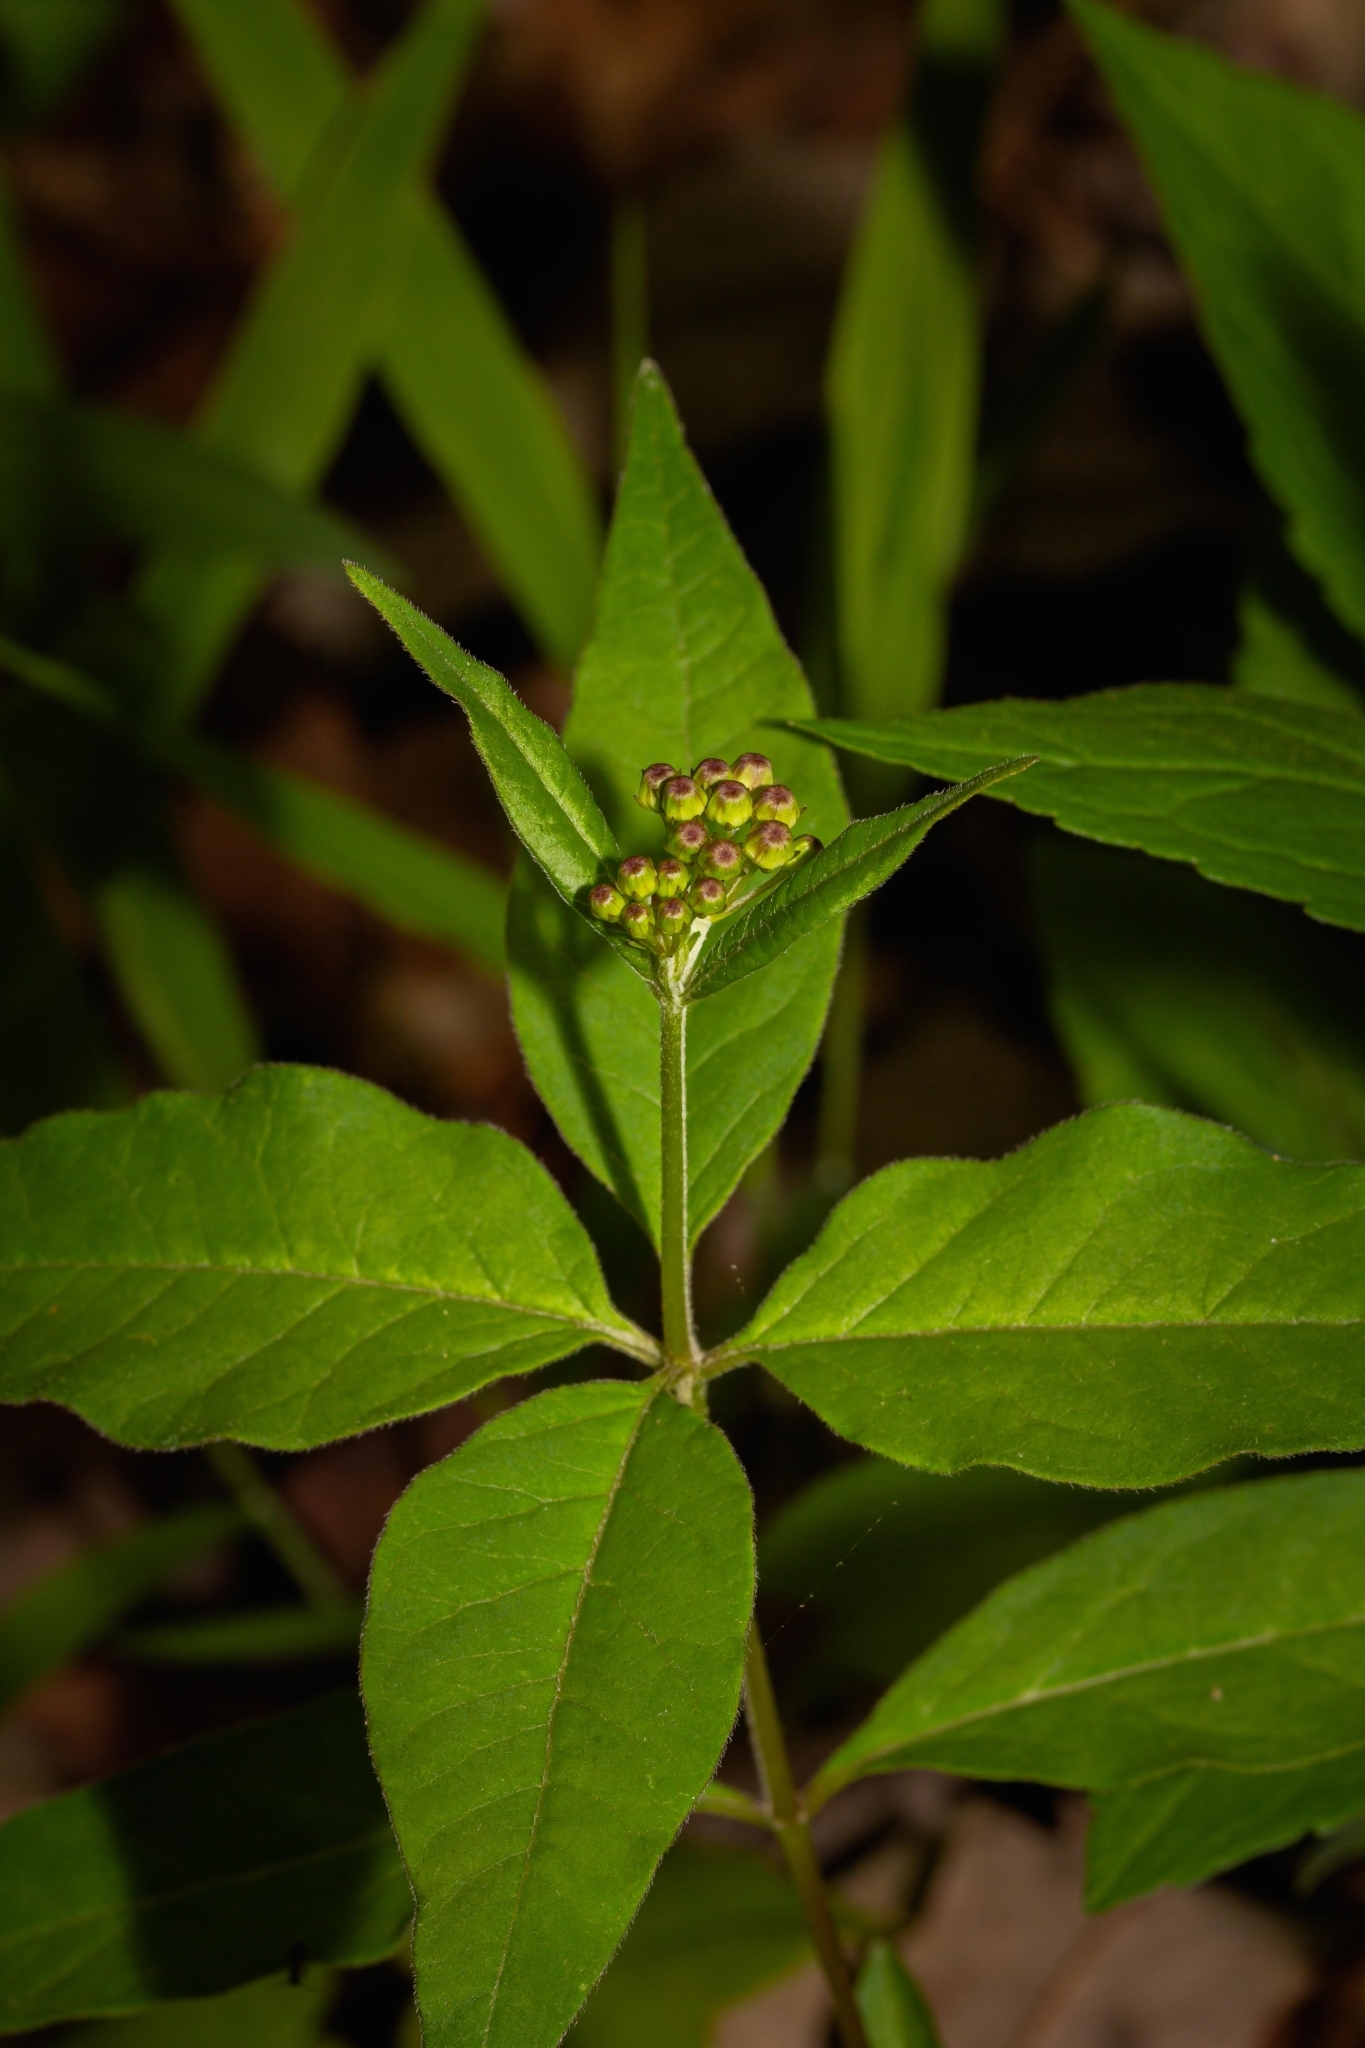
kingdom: Plantae
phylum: Tracheophyta
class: Magnoliopsida
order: Gentianales
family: Apocynaceae
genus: Asclepias
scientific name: Asclepias quadrifolia
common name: Whorled milkweed
